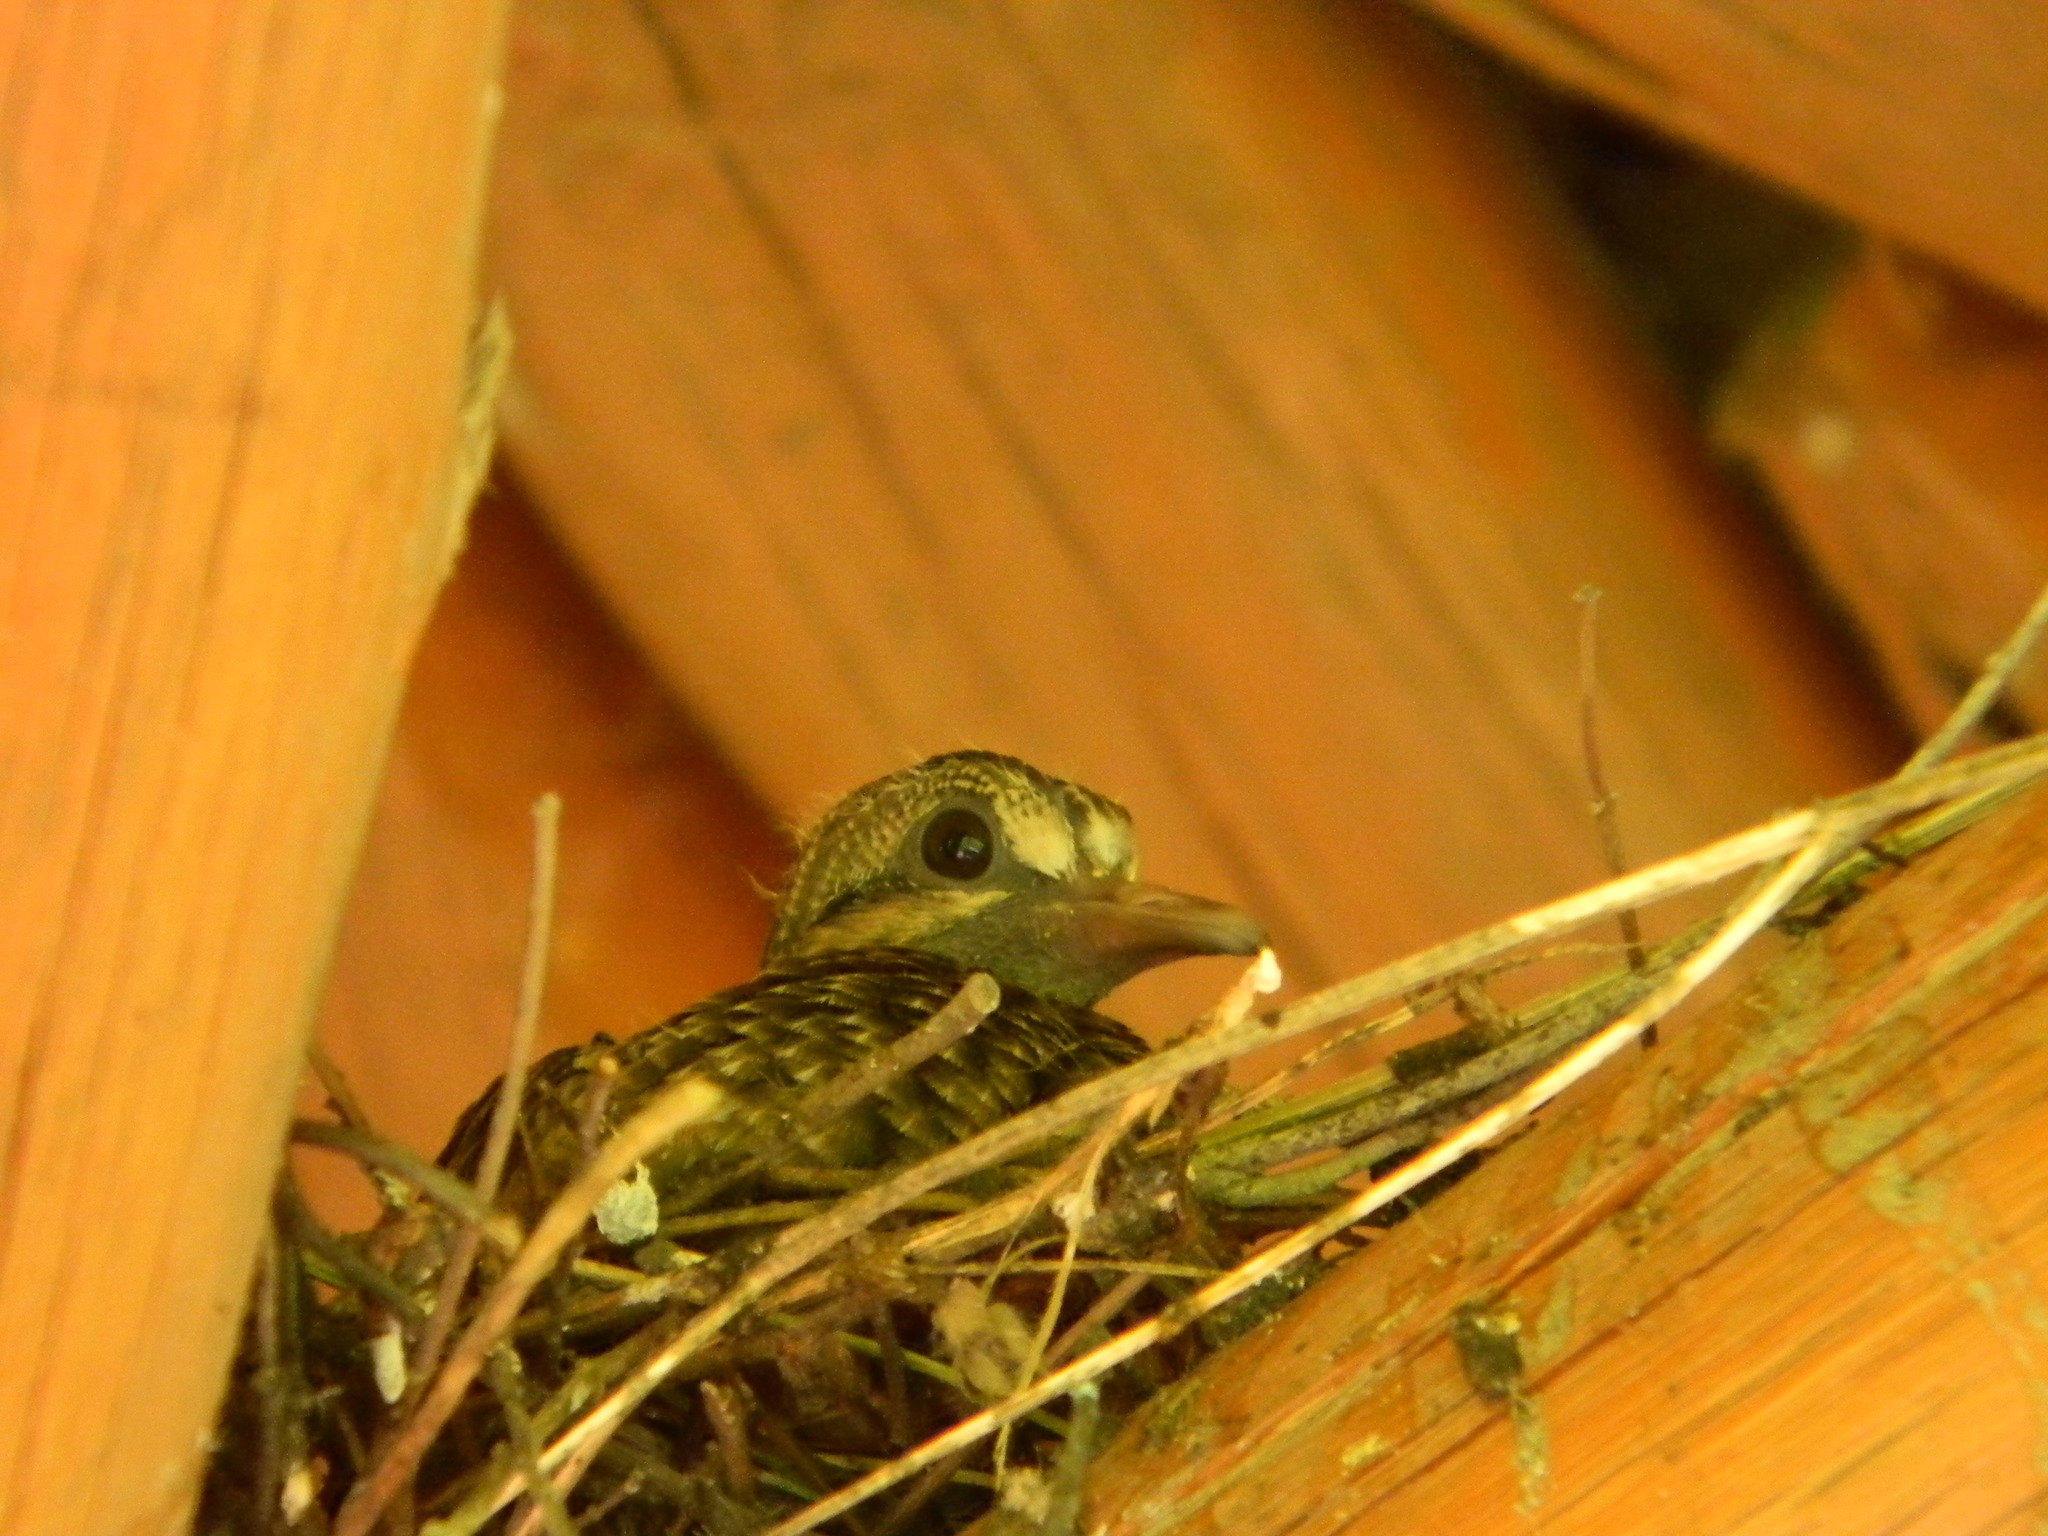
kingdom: Animalia
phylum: Chordata
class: Aves
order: Columbiformes
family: Columbidae
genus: Zenaida
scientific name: Zenaida auriculata
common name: Eared dove
